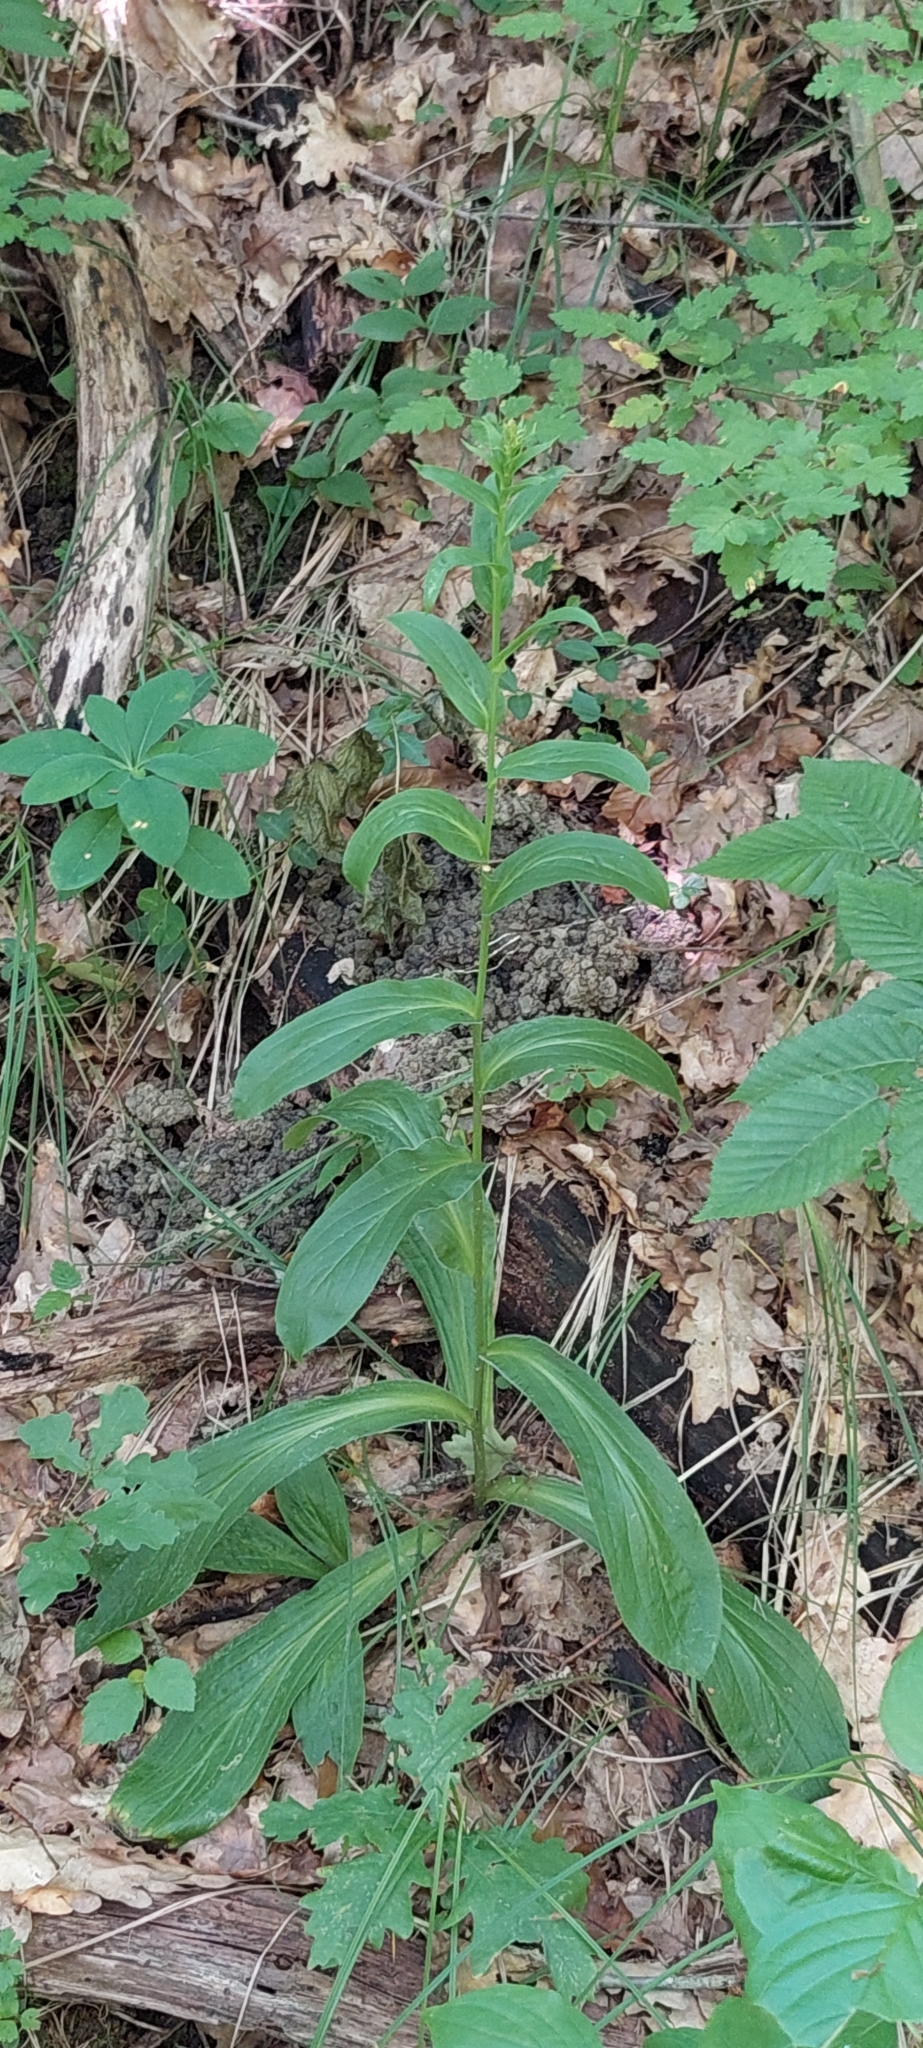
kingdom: Plantae
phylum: Tracheophyta
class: Magnoliopsida
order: Lamiales
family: Plantaginaceae
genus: Digitalis
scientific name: Digitalis ferruginea
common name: Rusty foxglove
